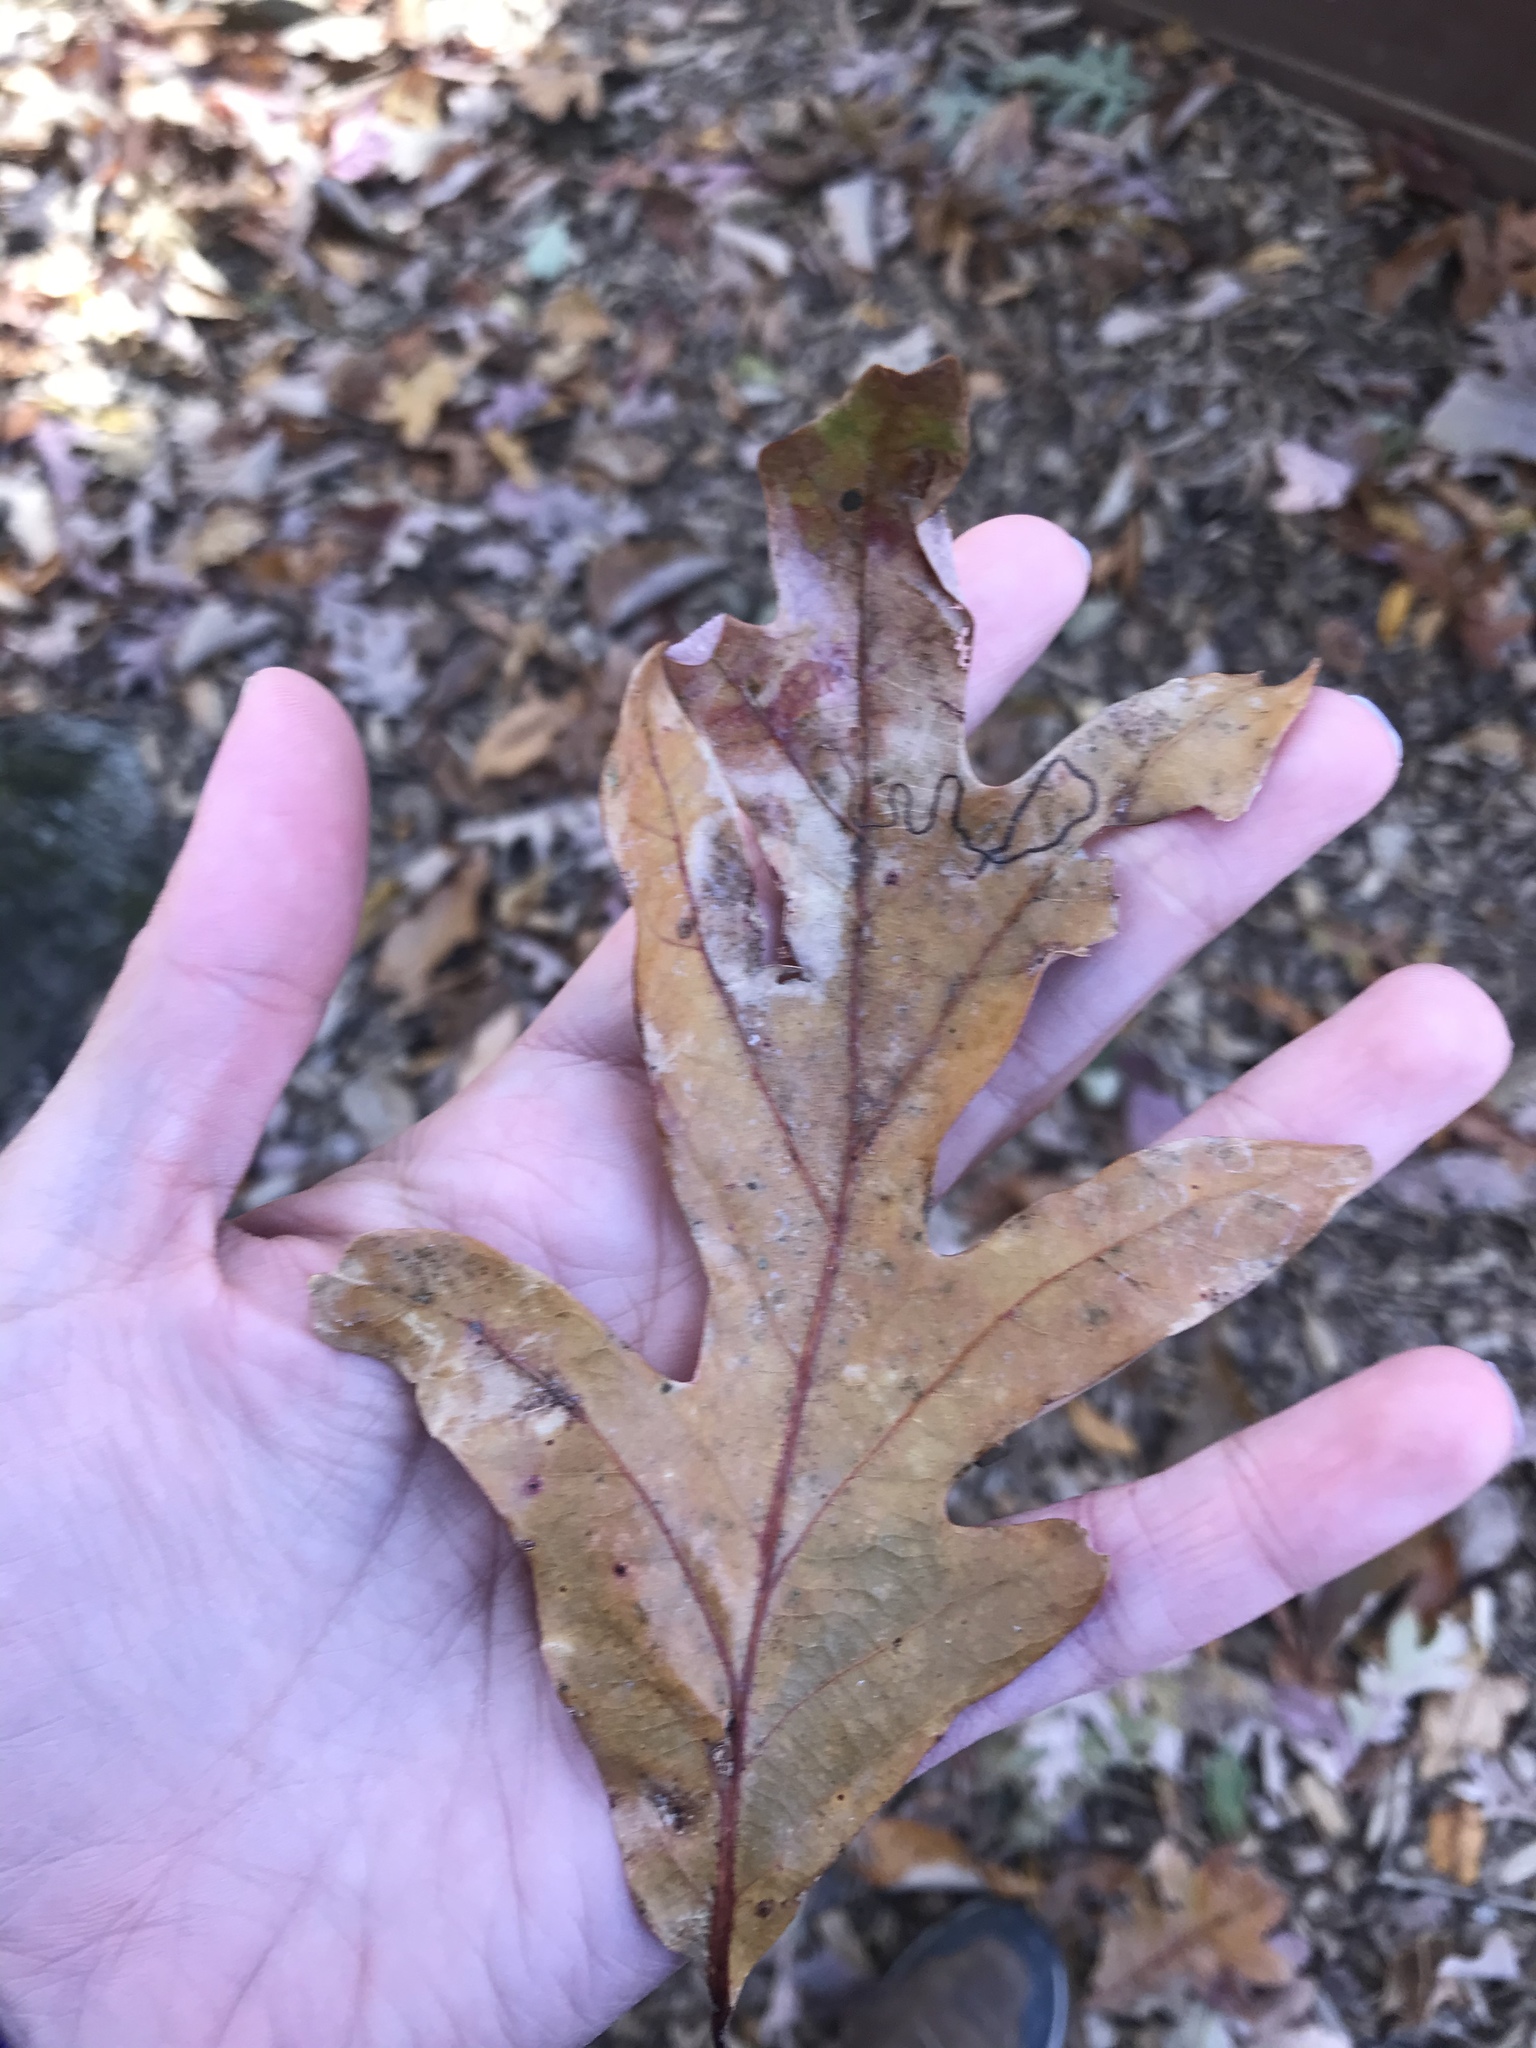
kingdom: Plantae
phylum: Tracheophyta
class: Magnoliopsida
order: Fagales
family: Fagaceae
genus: Quercus
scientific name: Quercus alba
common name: White oak
